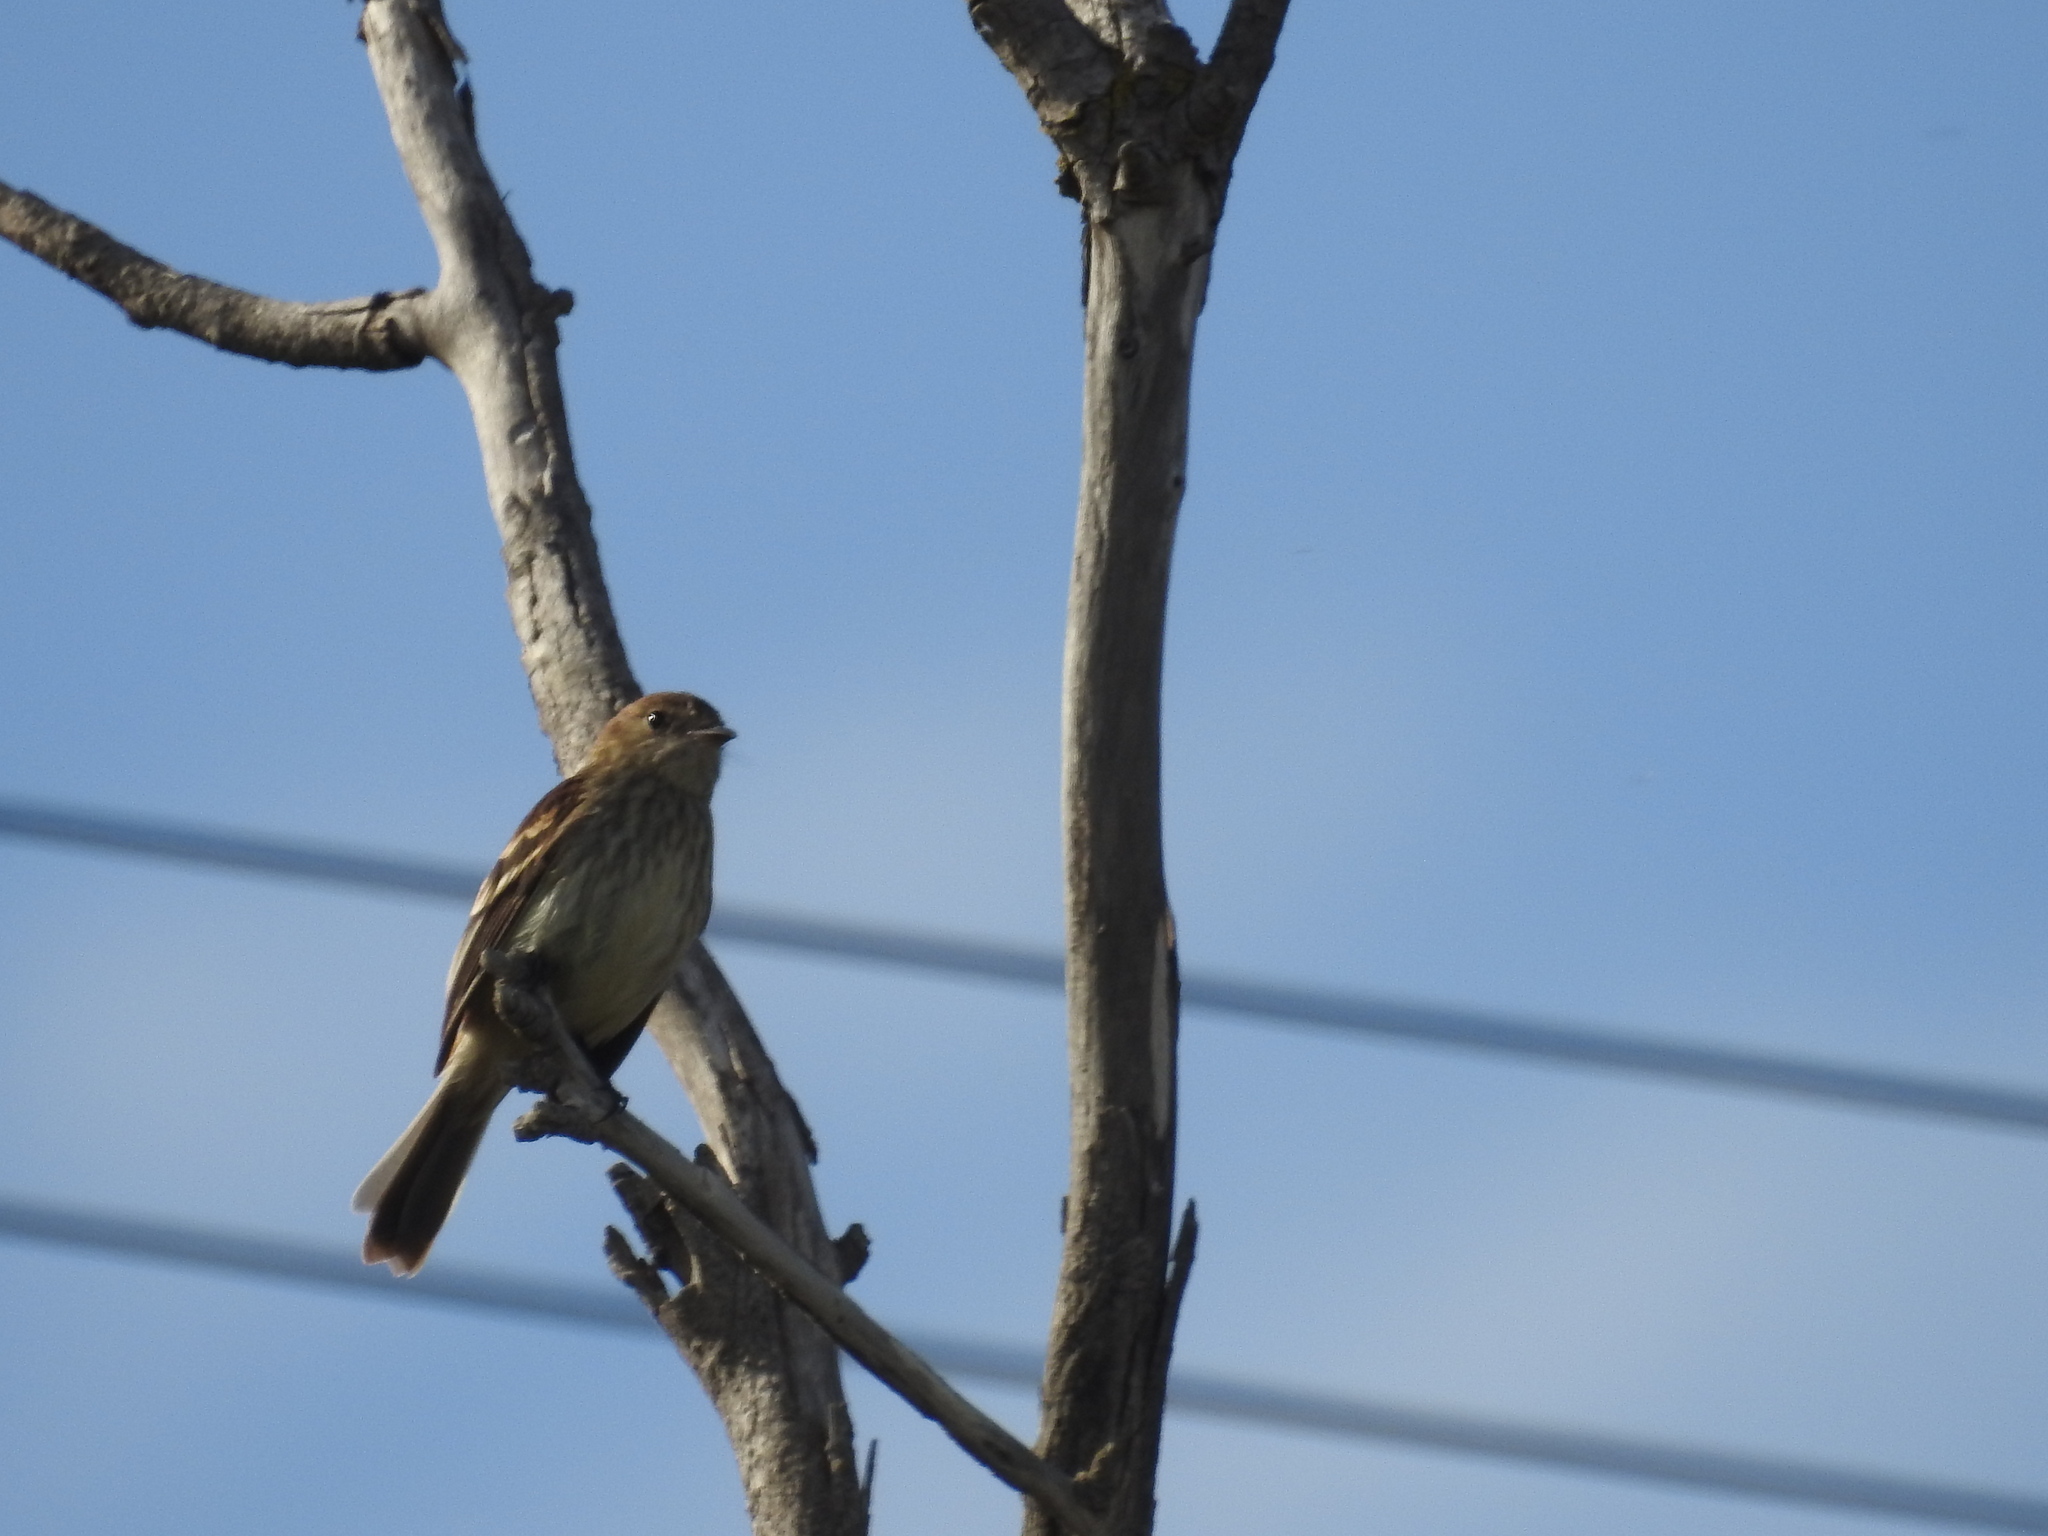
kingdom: Animalia
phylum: Chordata
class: Aves
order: Passeriformes
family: Tyrannidae
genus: Myiophobus
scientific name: Myiophobus fasciatus
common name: Bran-colored flycatcher
